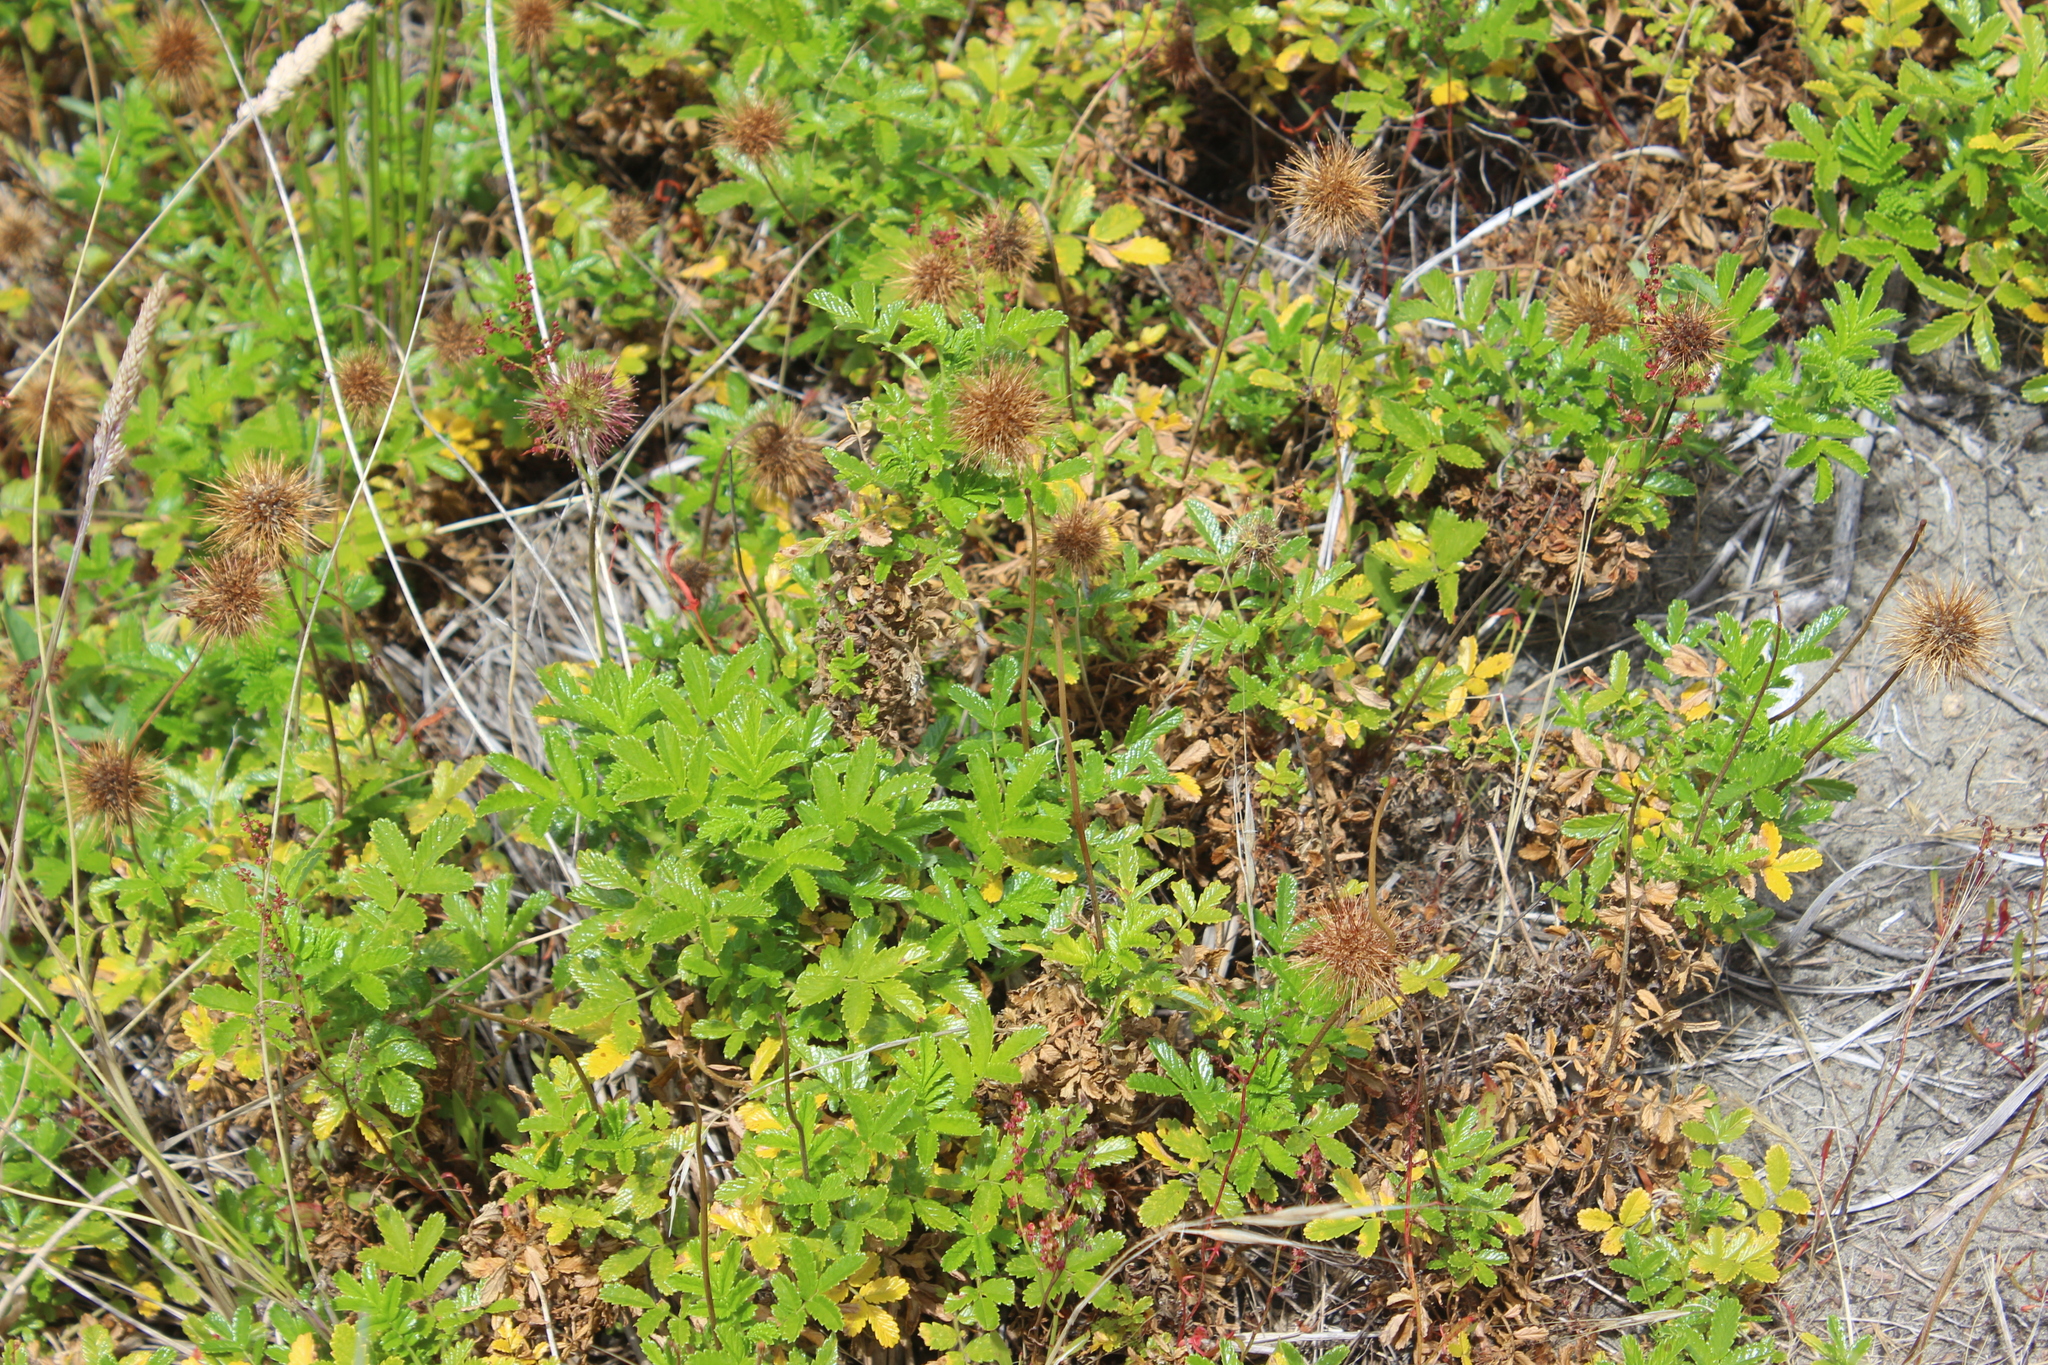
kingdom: Plantae
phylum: Tracheophyta
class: Magnoliopsida
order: Rosales
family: Rosaceae
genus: Acaena
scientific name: Acaena novae-zelandiae
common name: Pirri-pirri-bur
